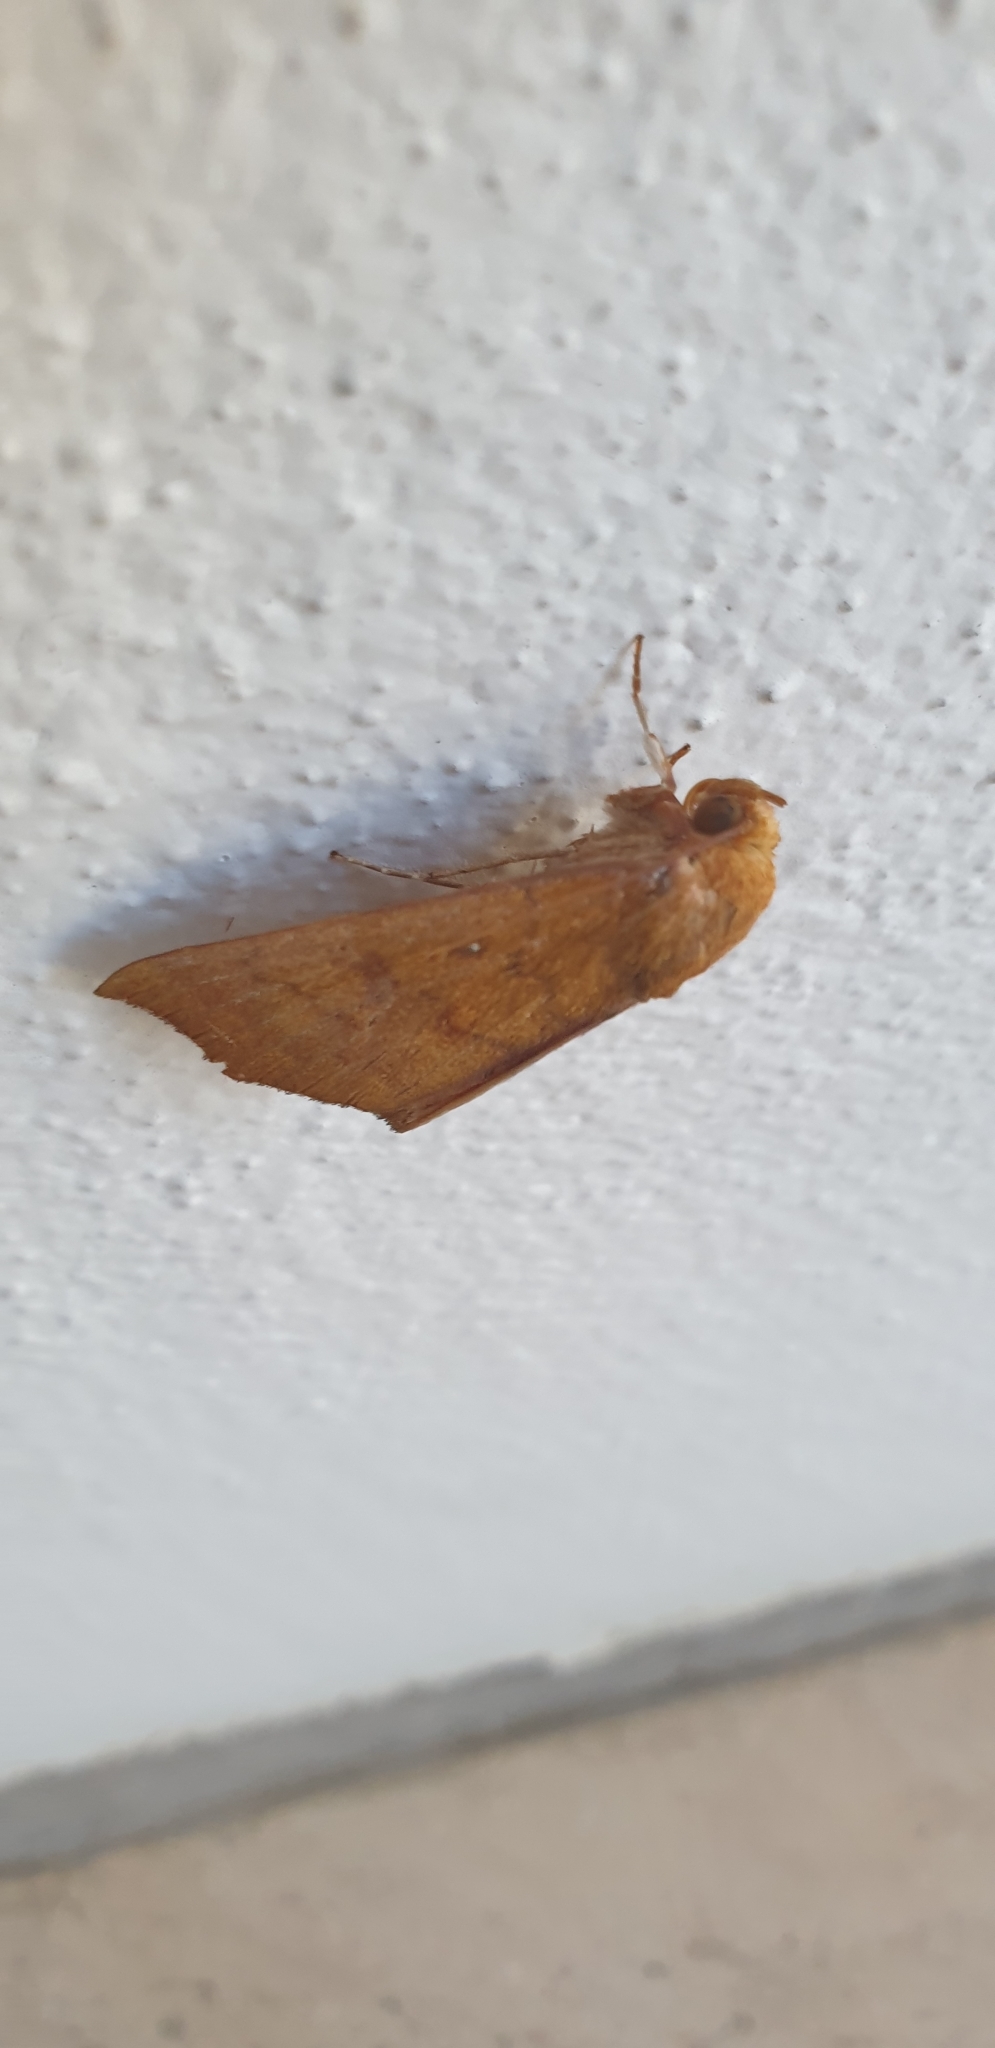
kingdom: Animalia
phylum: Arthropoda
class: Insecta
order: Lepidoptera
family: Erebidae
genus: Rusicada
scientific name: Rusicada revocans
